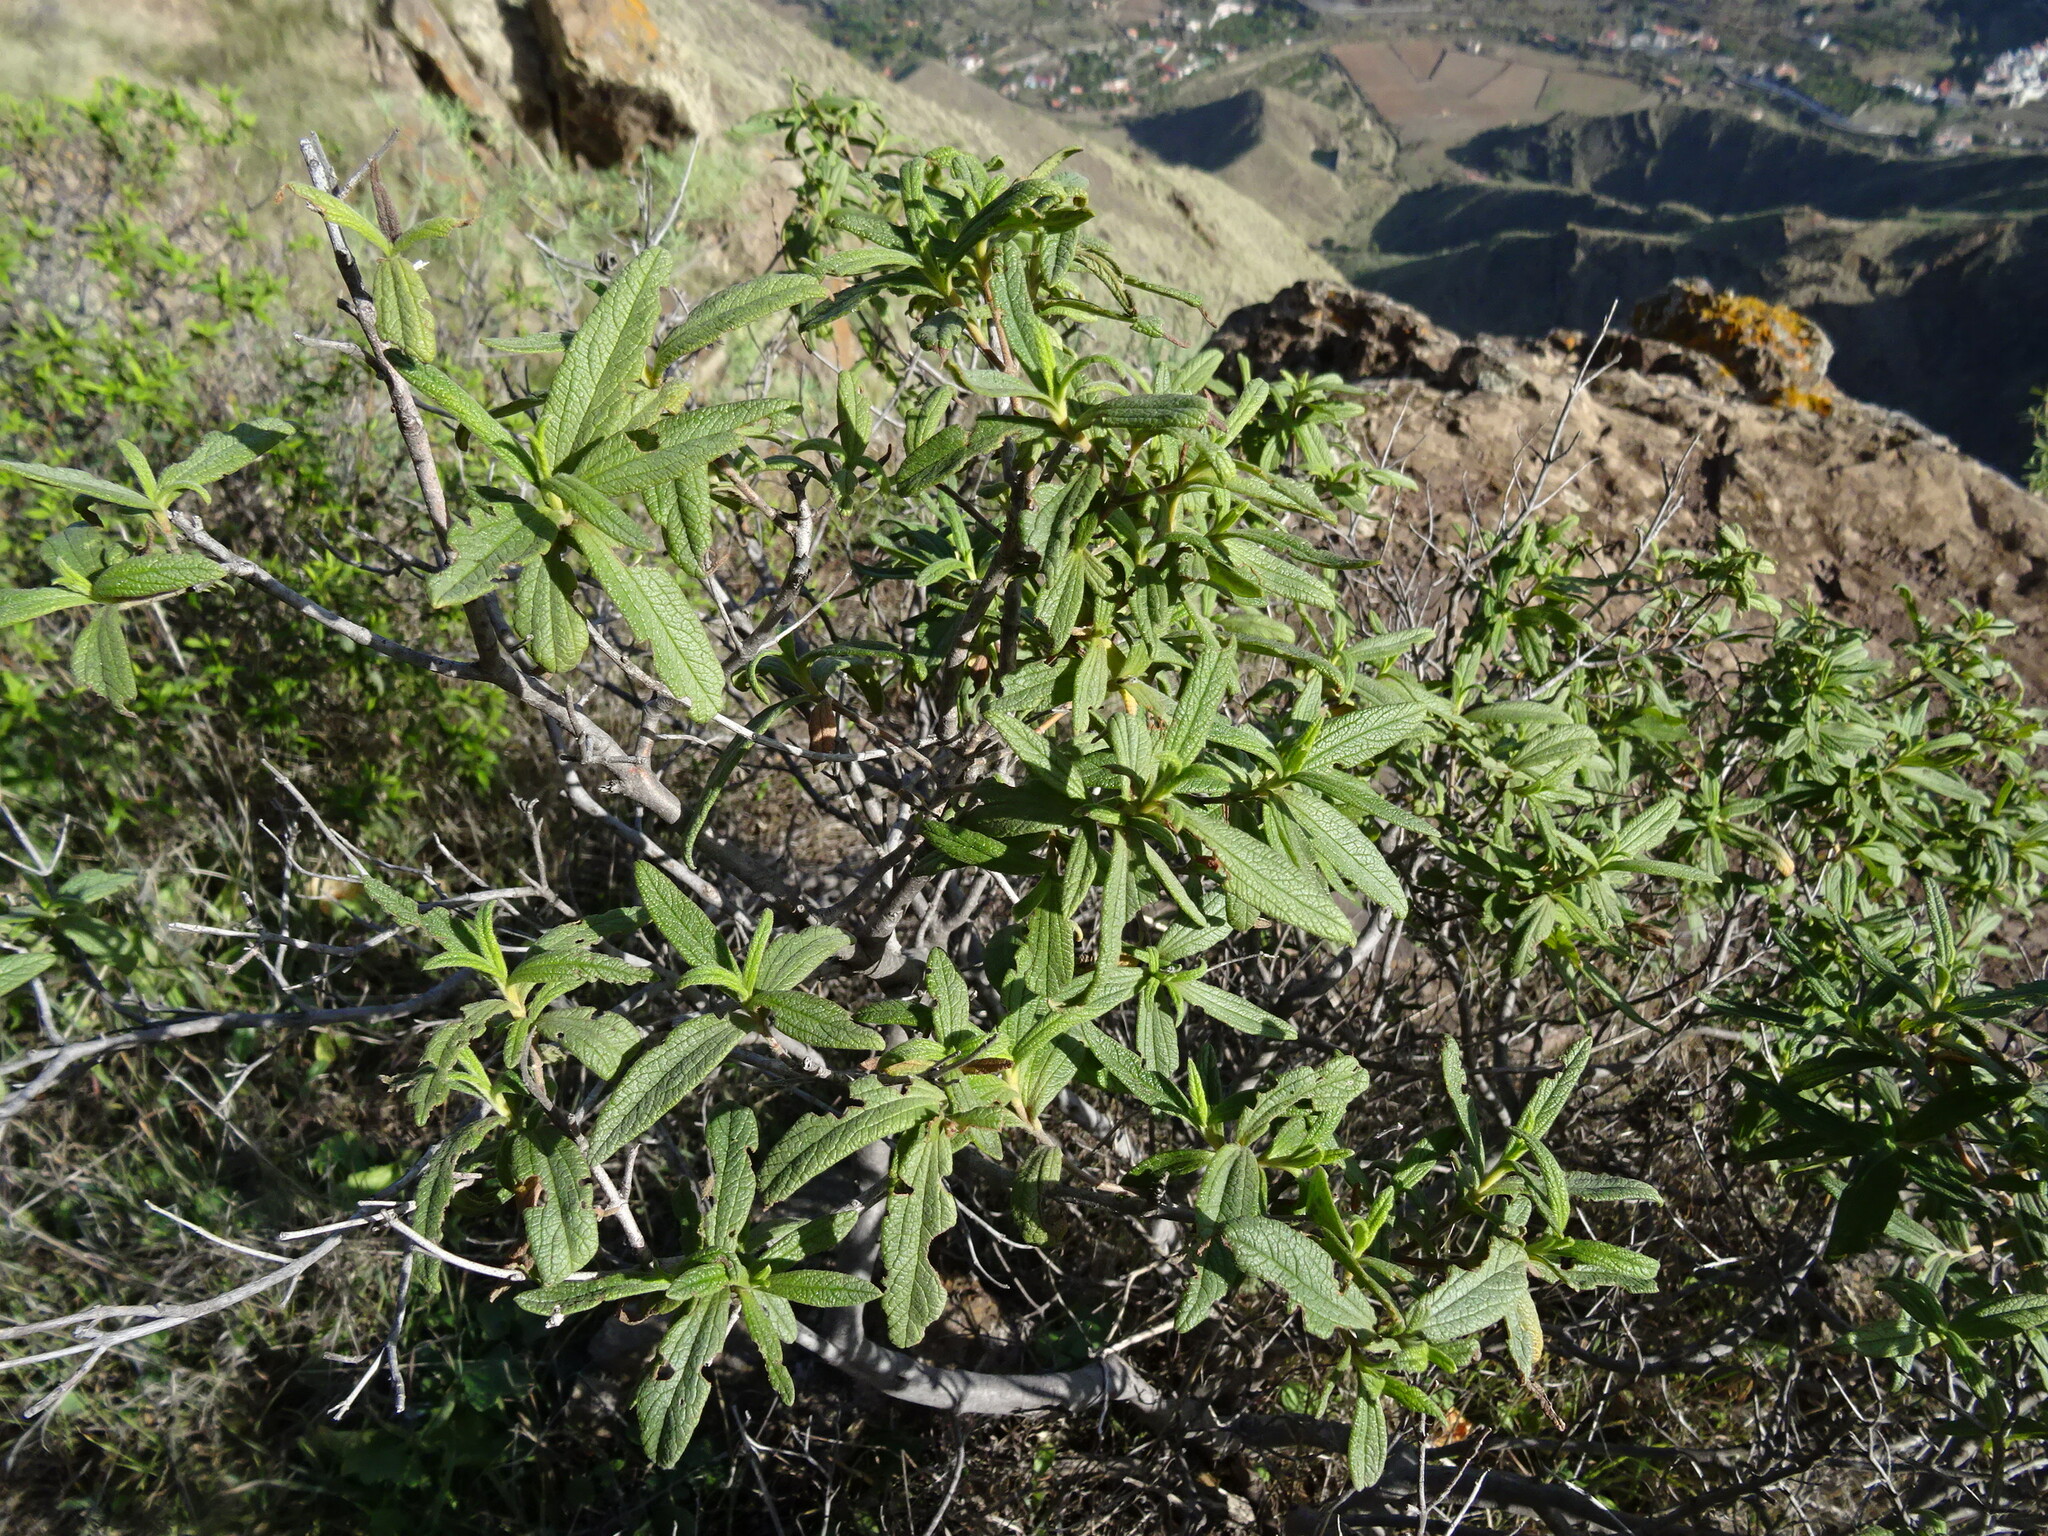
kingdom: Plantae
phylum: Tracheophyta
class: Magnoliopsida
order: Malvales
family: Cistaceae
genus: Cistus
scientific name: Cistus monspeliensis
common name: Montpelier cistus
